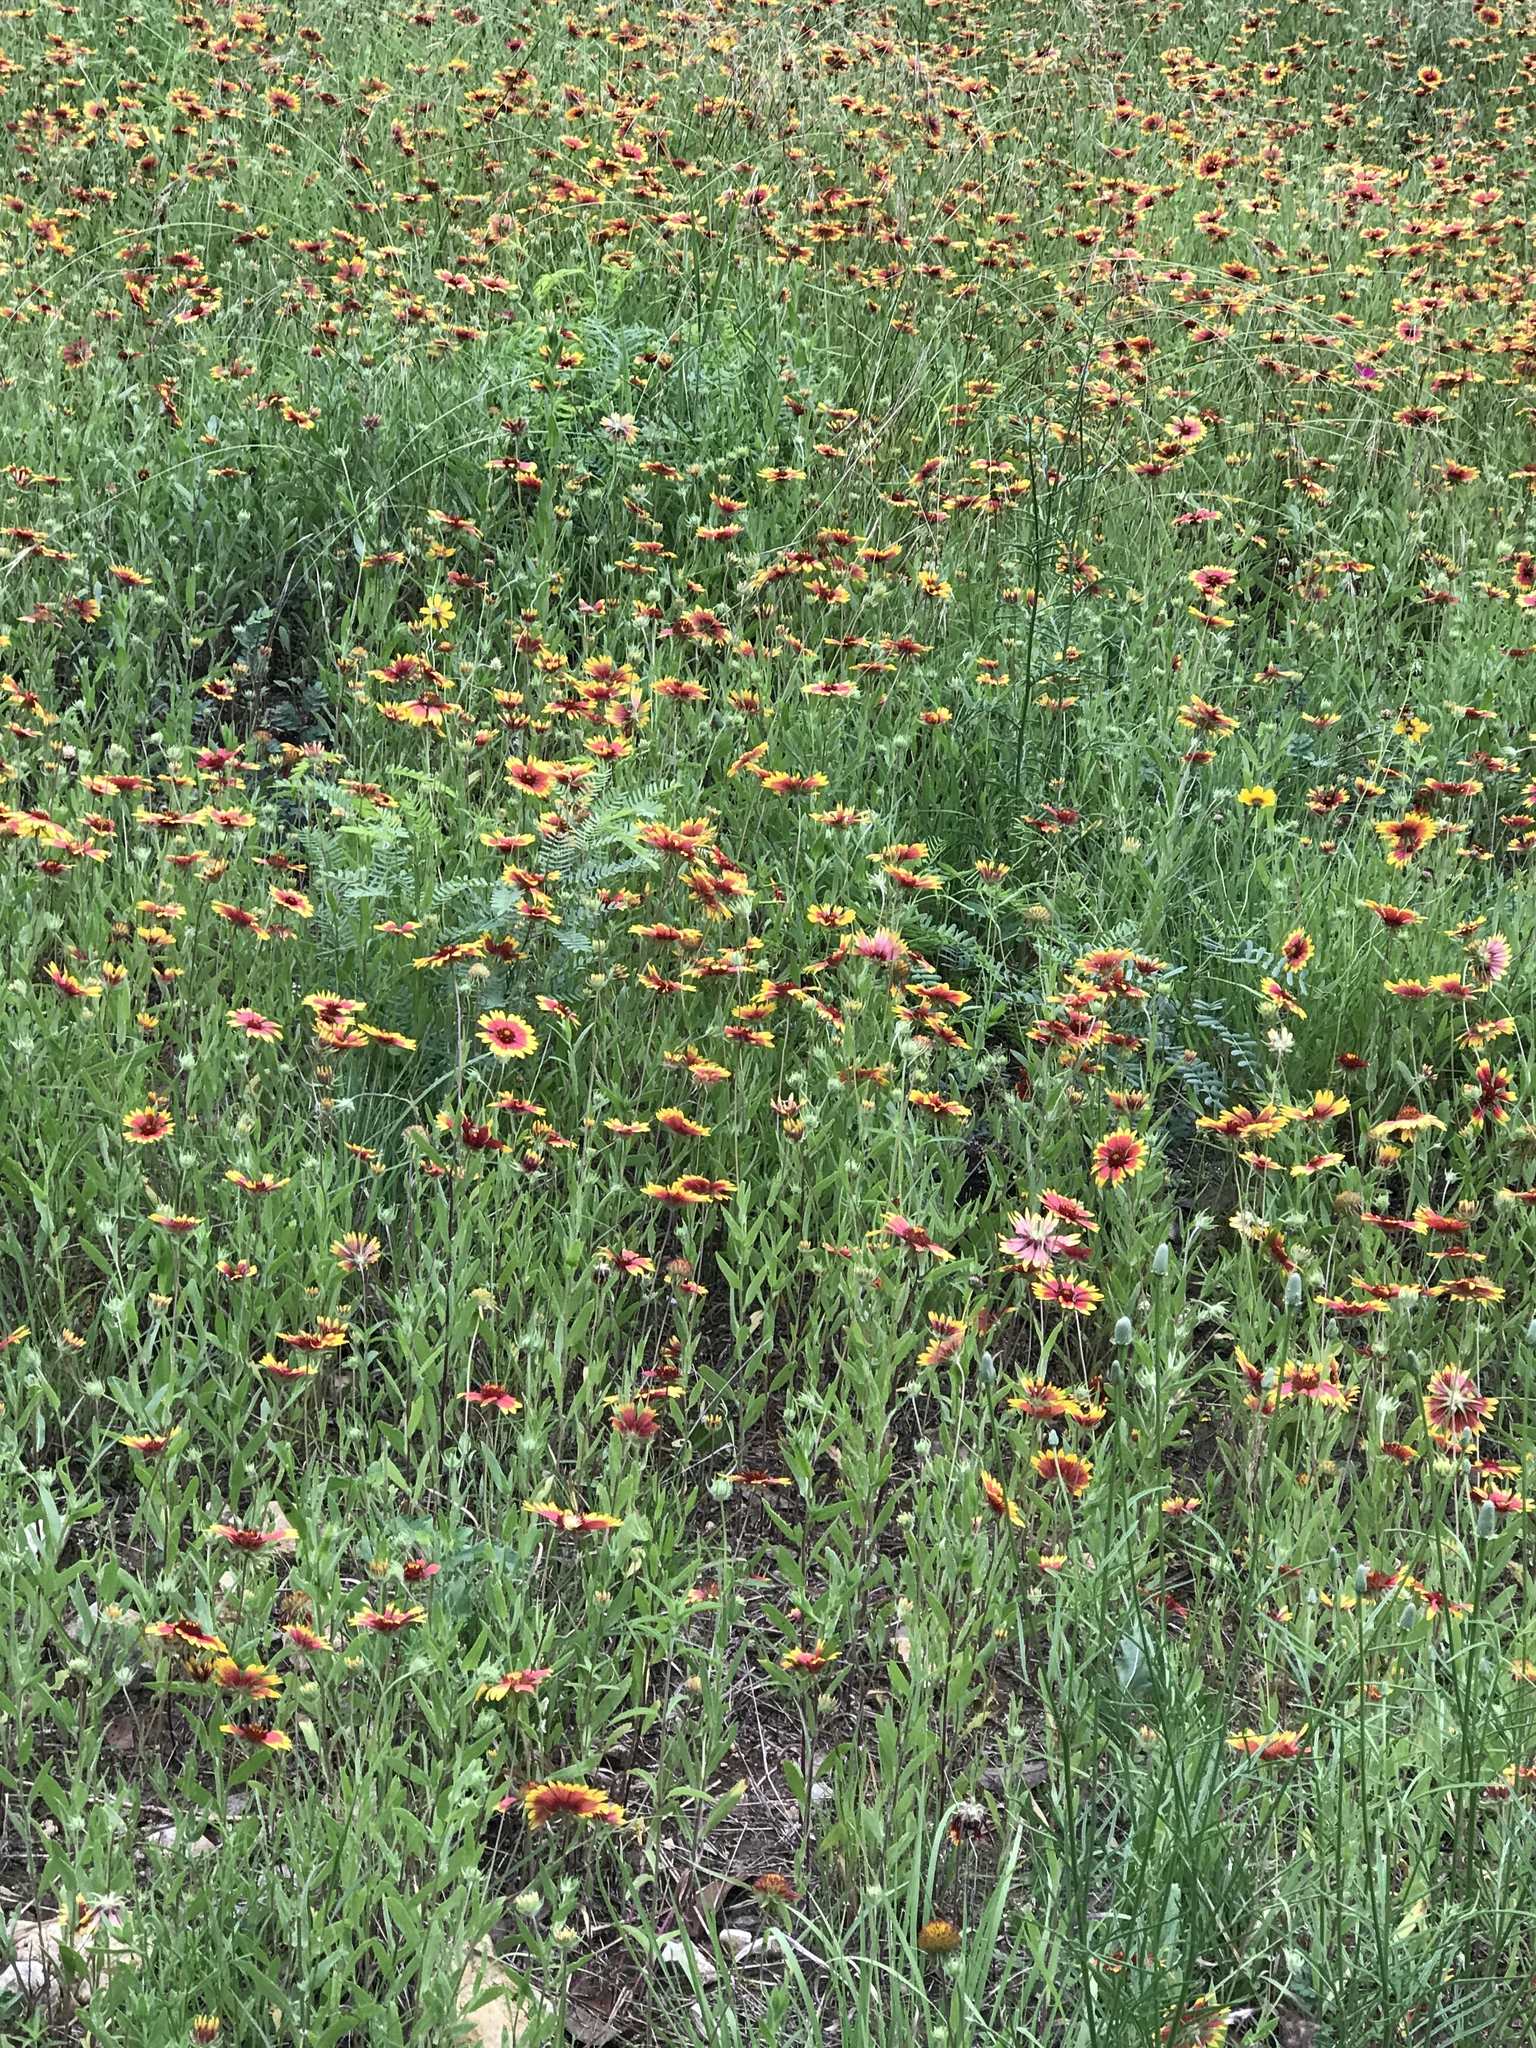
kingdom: Plantae
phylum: Tracheophyta
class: Magnoliopsida
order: Asterales
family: Asteraceae
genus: Gaillardia
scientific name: Gaillardia pulchella
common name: Firewheel
